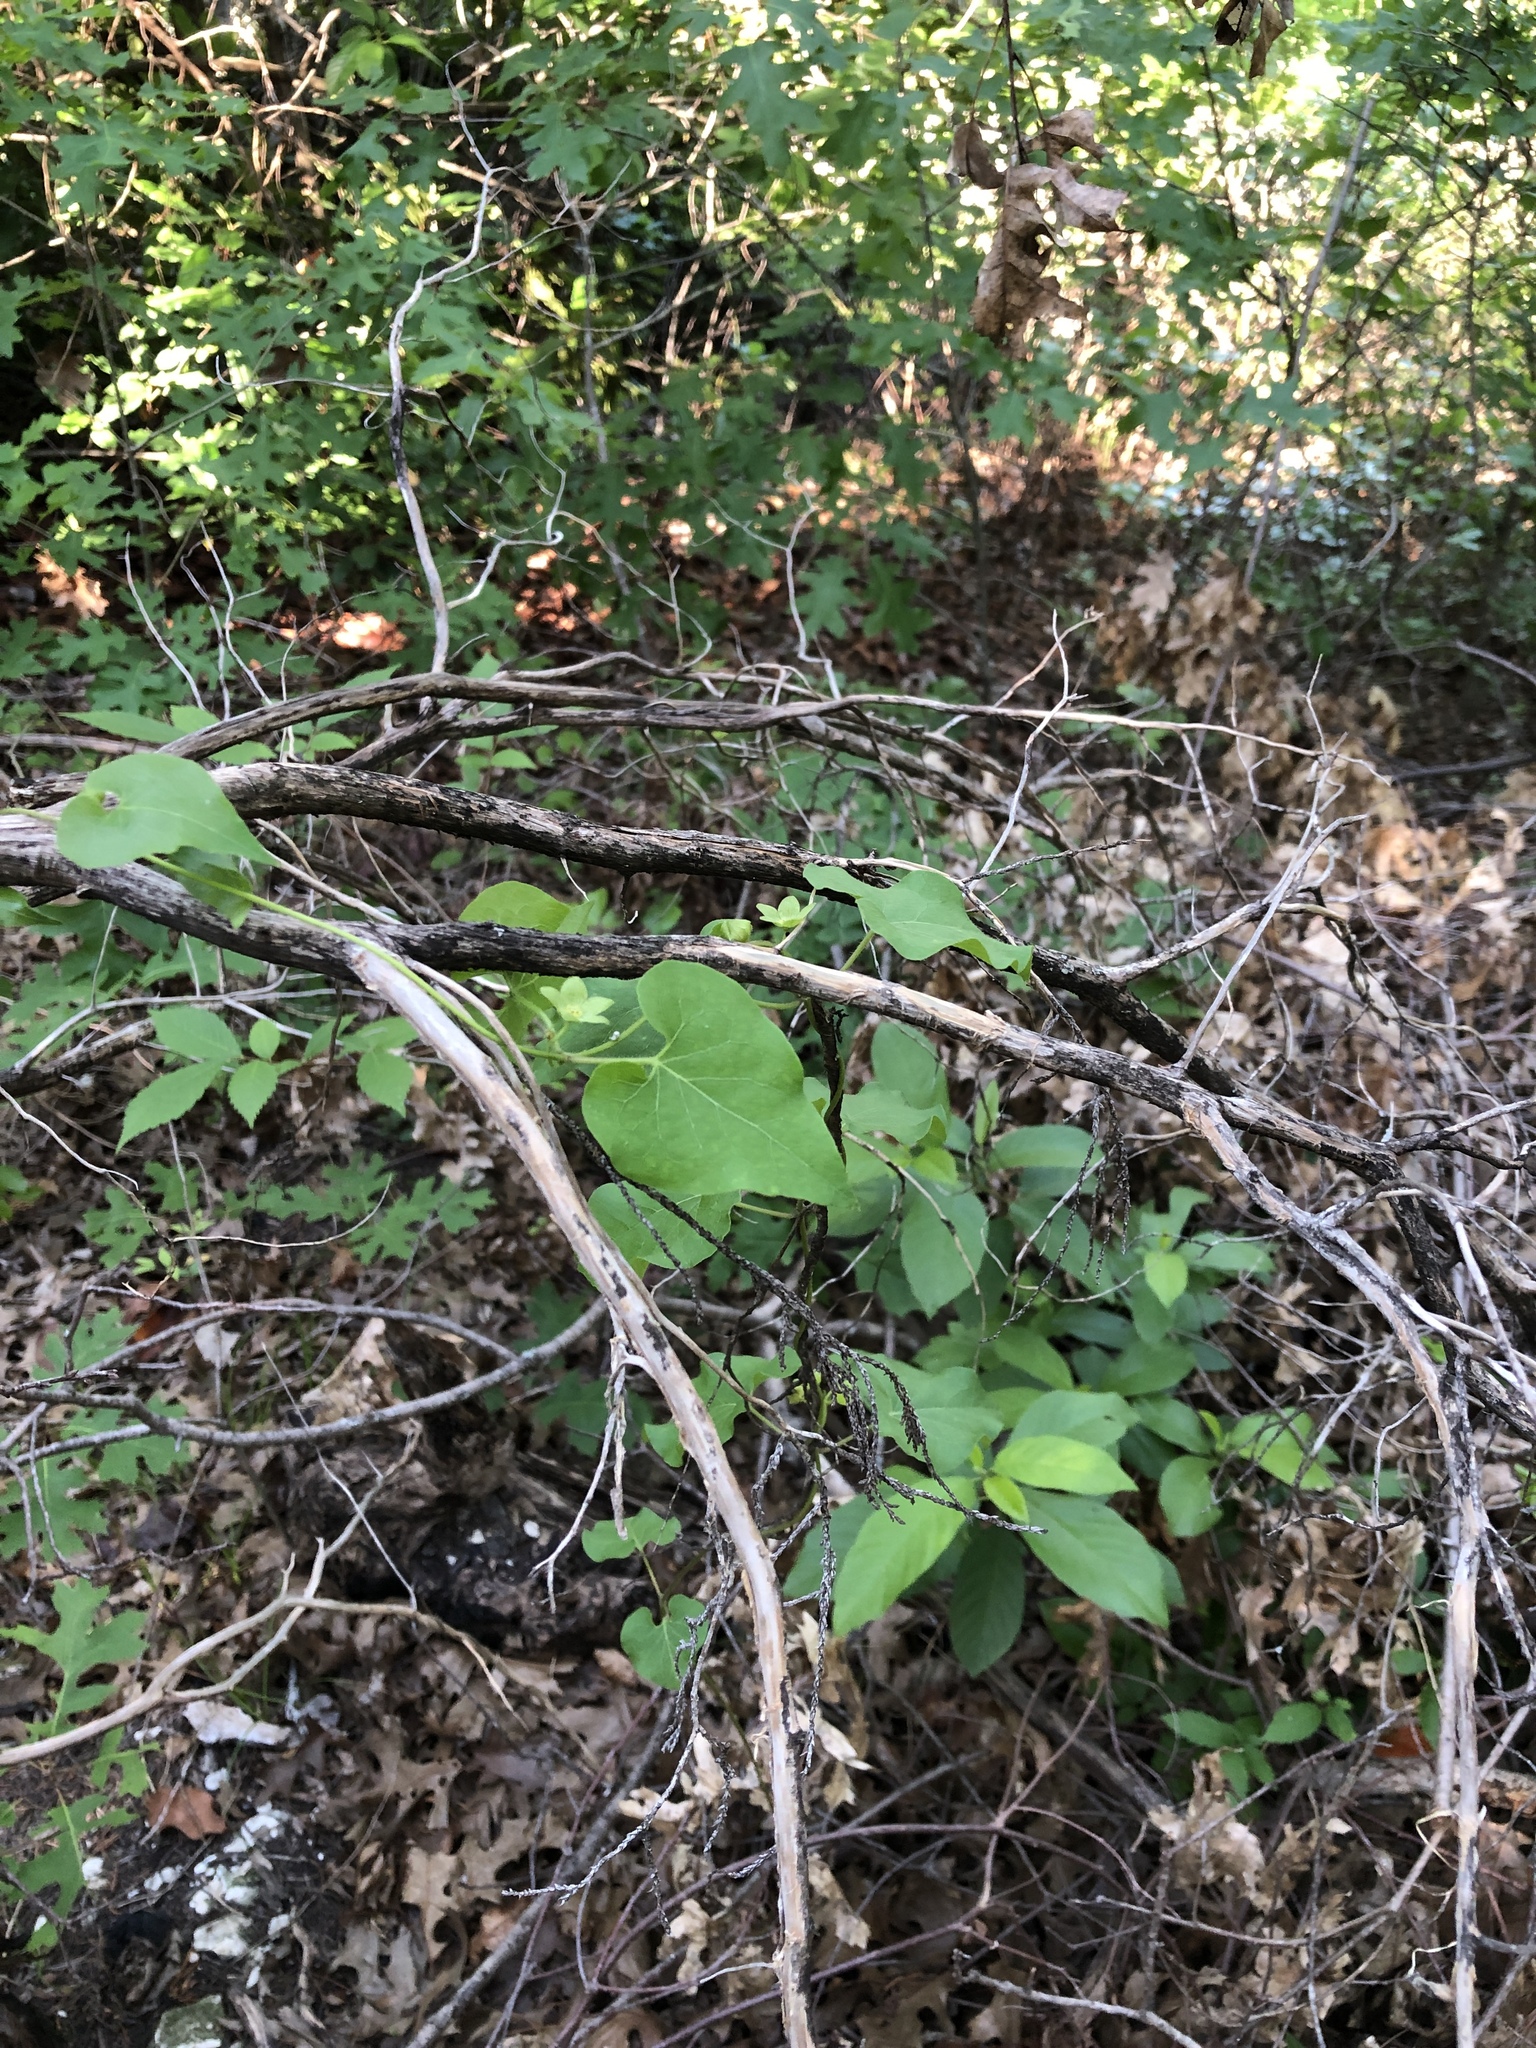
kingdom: Plantae
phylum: Tracheophyta
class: Magnoliopsida
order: Gentianales
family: Apocynaceae
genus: Matelea
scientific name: Matelea edwardsensis
